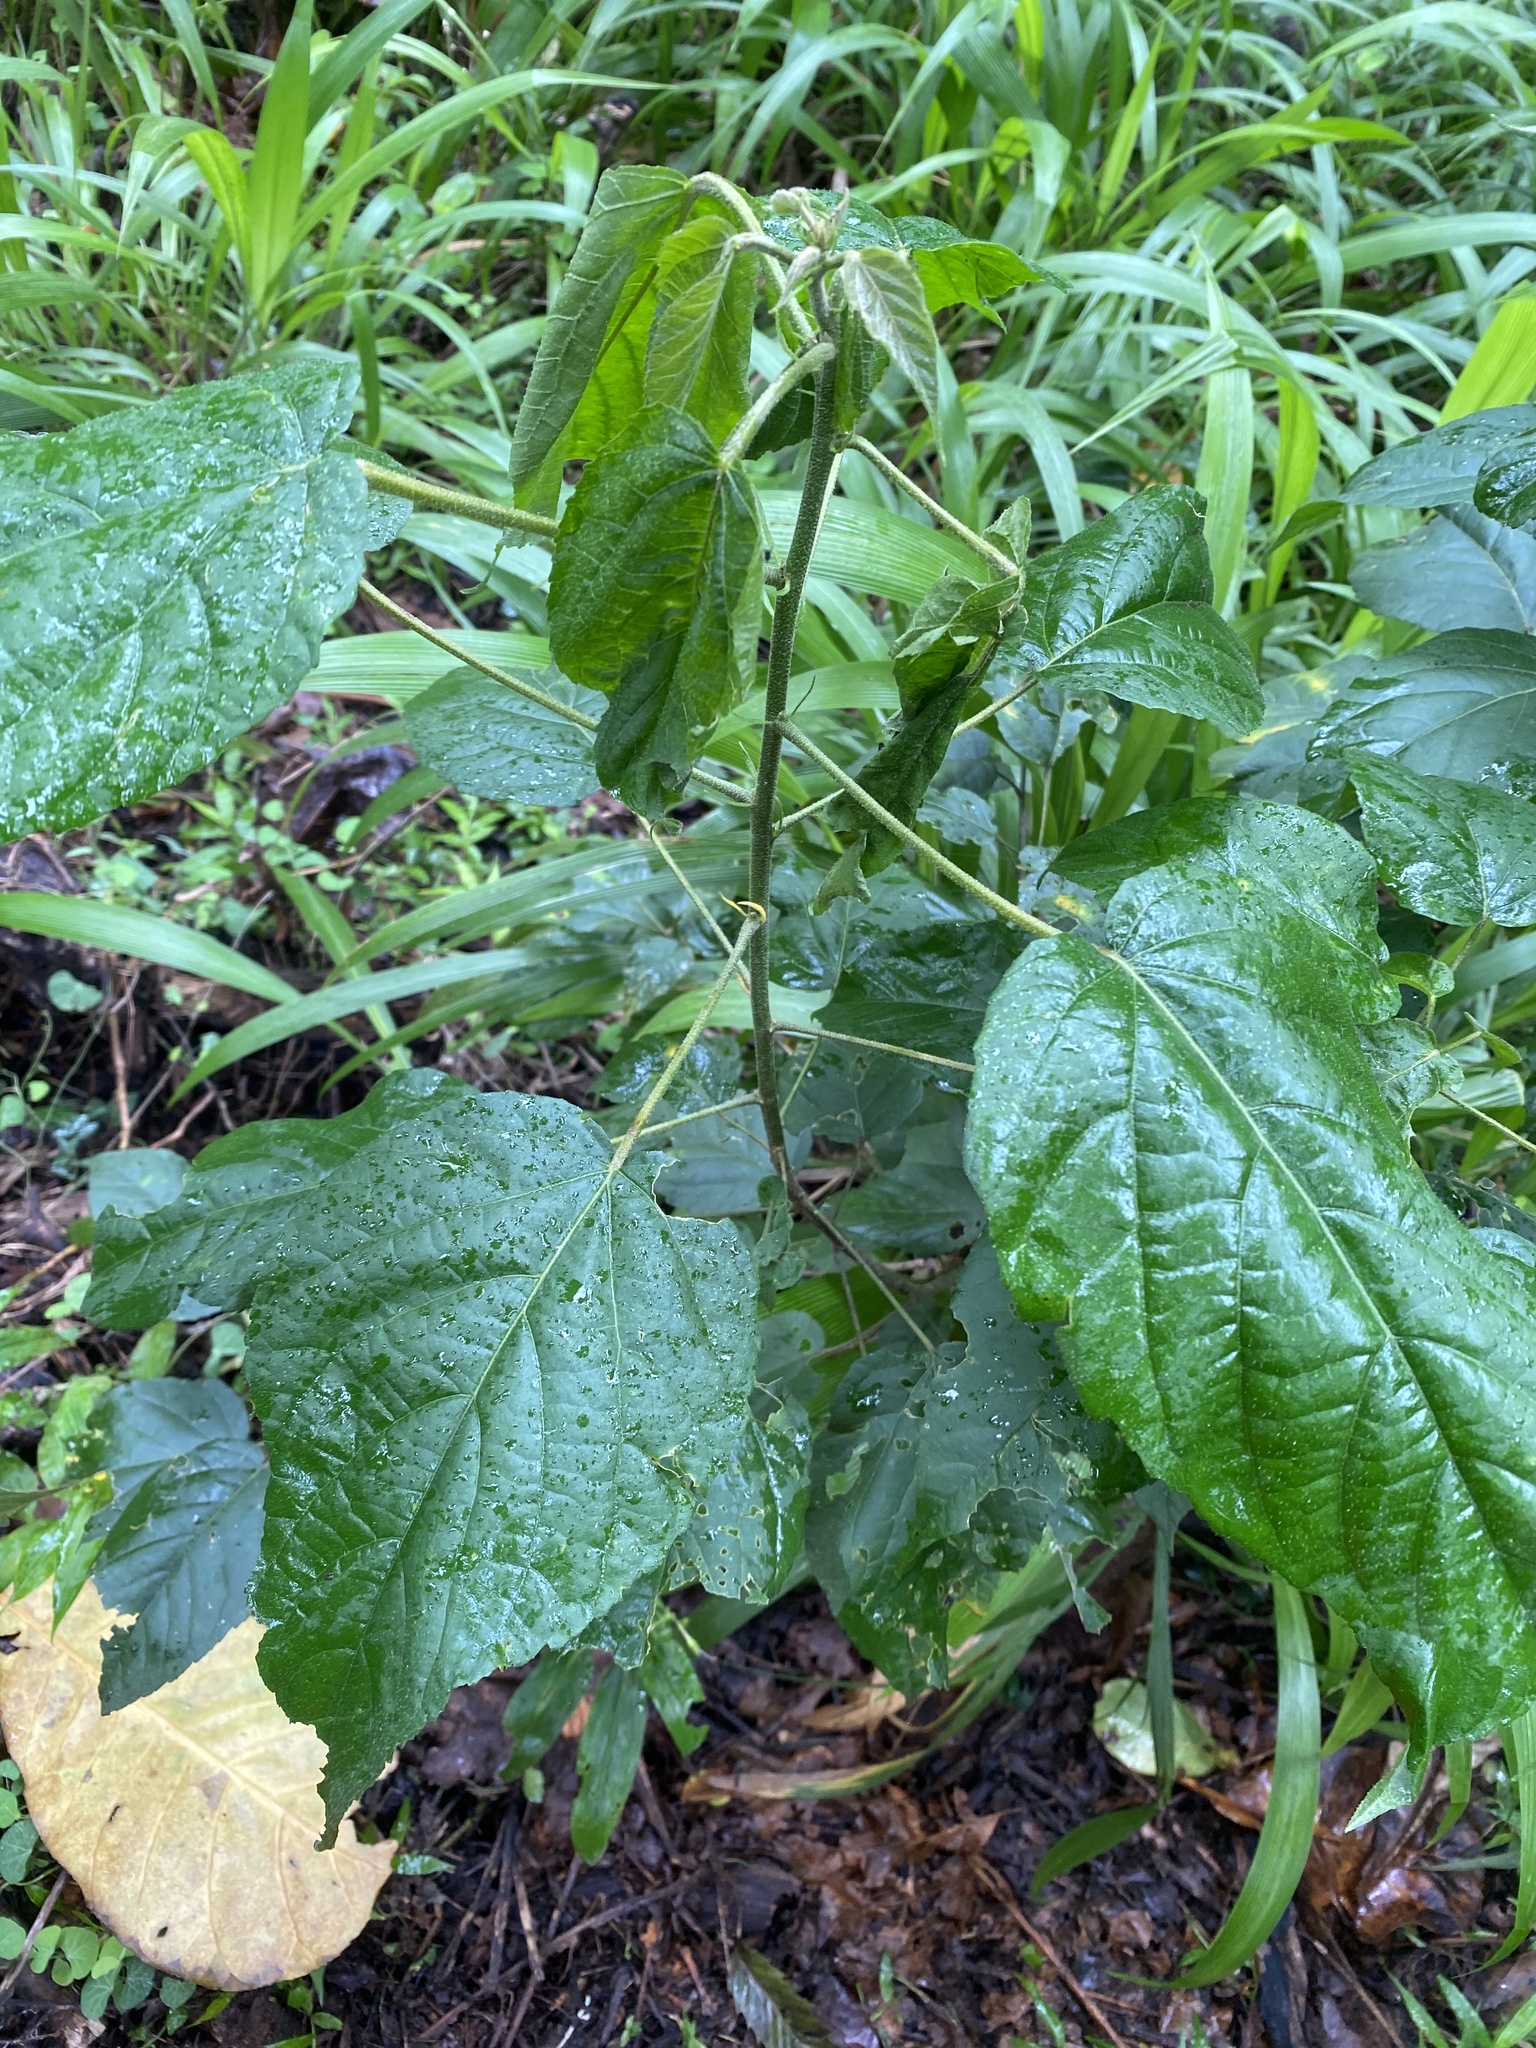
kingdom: Plantae
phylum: Tracheophyta
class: Magnoliopsida
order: Malpighiales
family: Euphorbiaceae
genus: Croton
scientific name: Croton sylvaticus
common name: Forest croton
